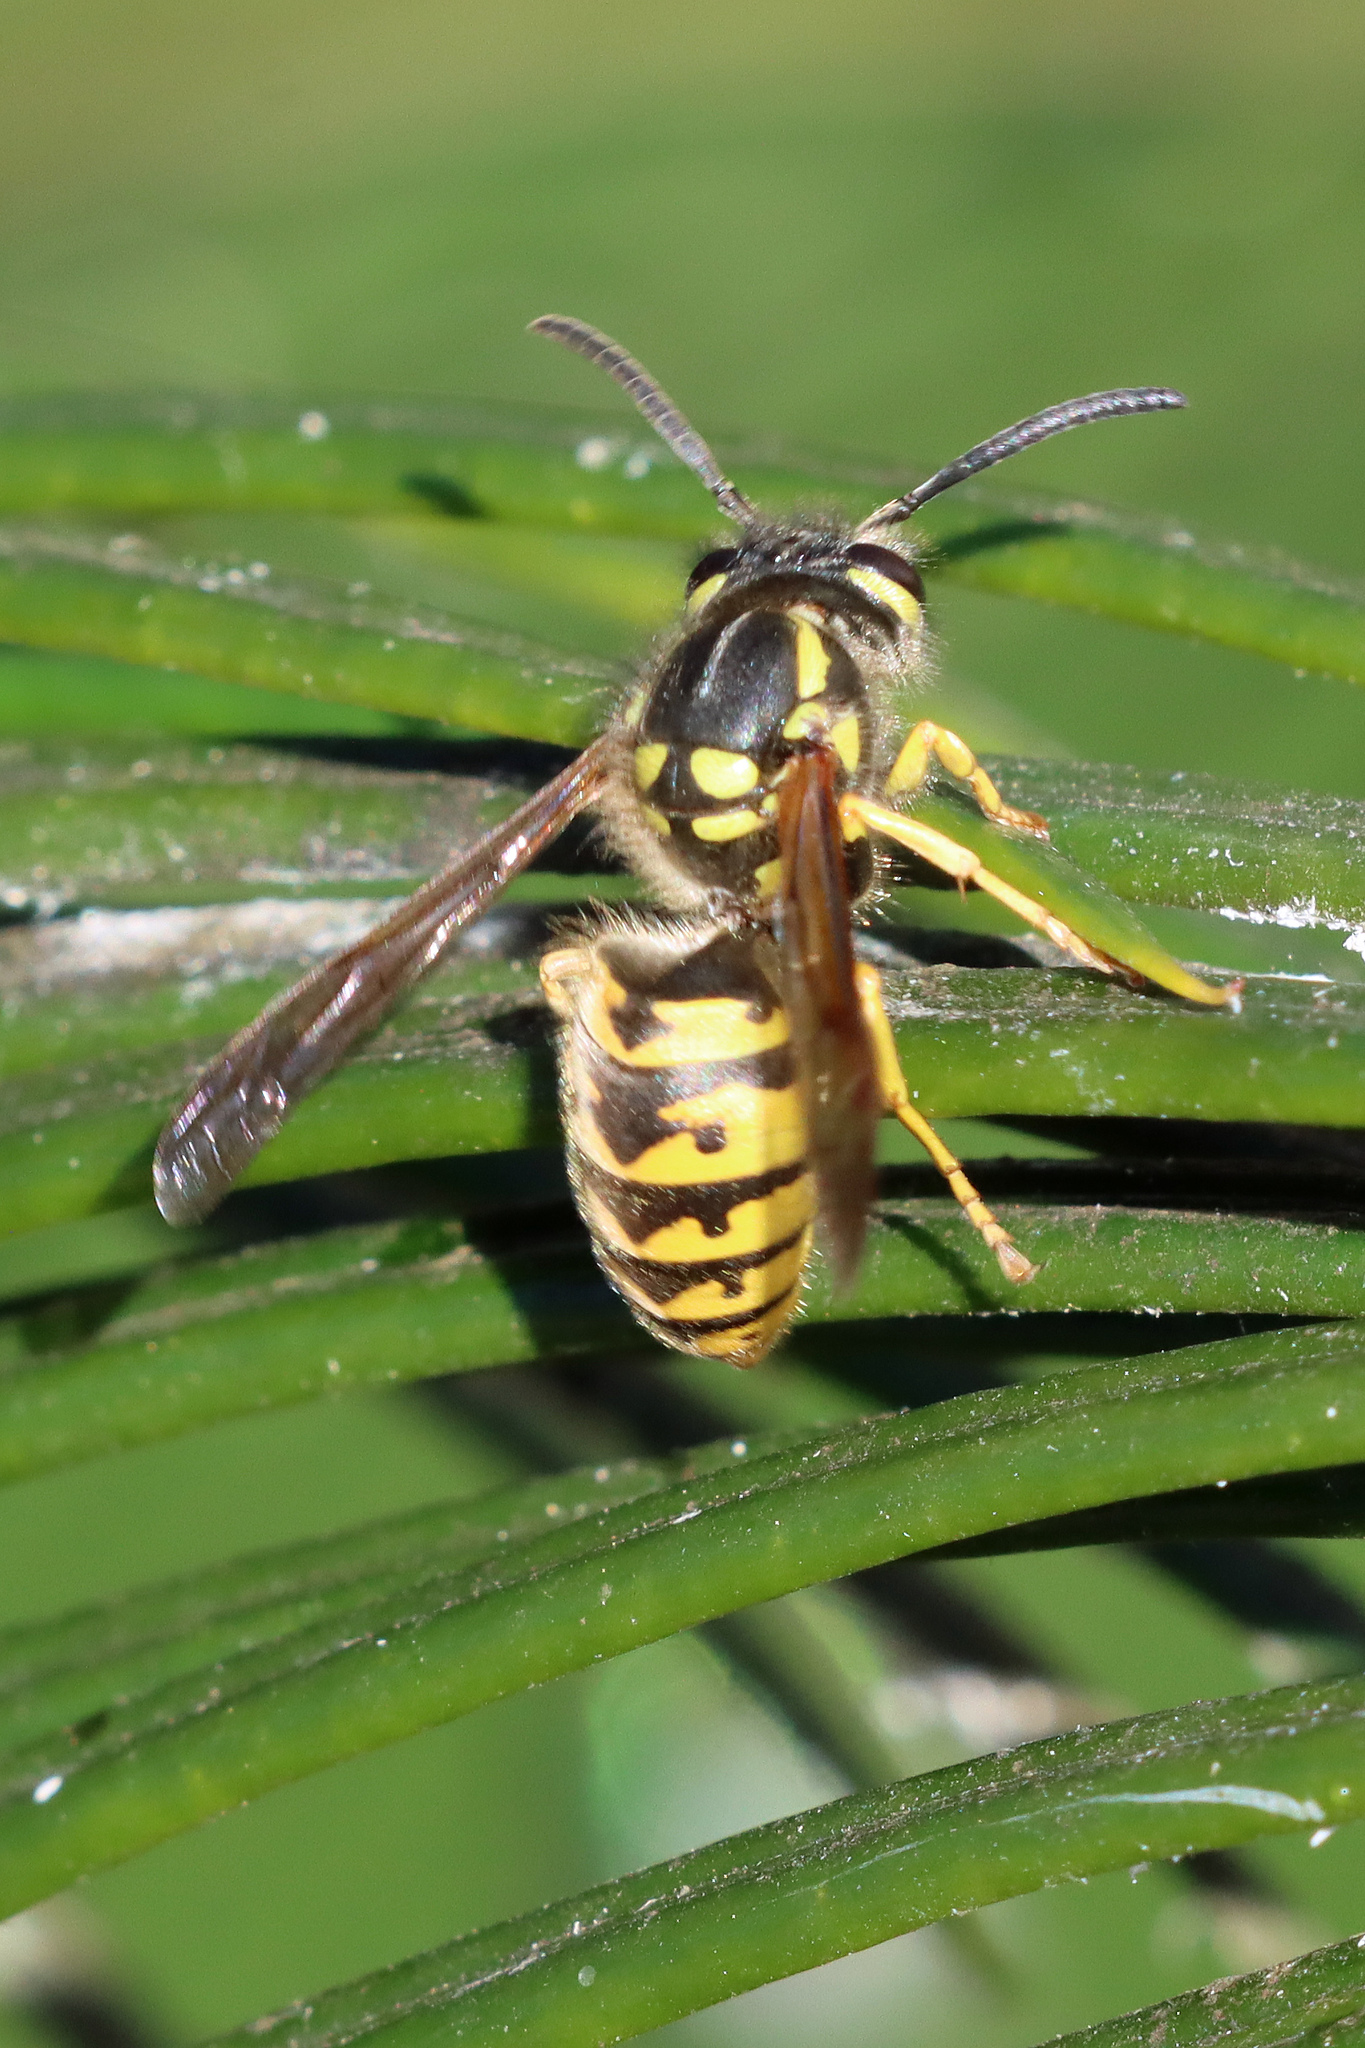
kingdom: Animalia
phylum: Arthropoda
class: Insecta
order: Hymenoptera
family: Vespidae
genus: Vespula
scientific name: Vespula germanica
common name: German wasp
